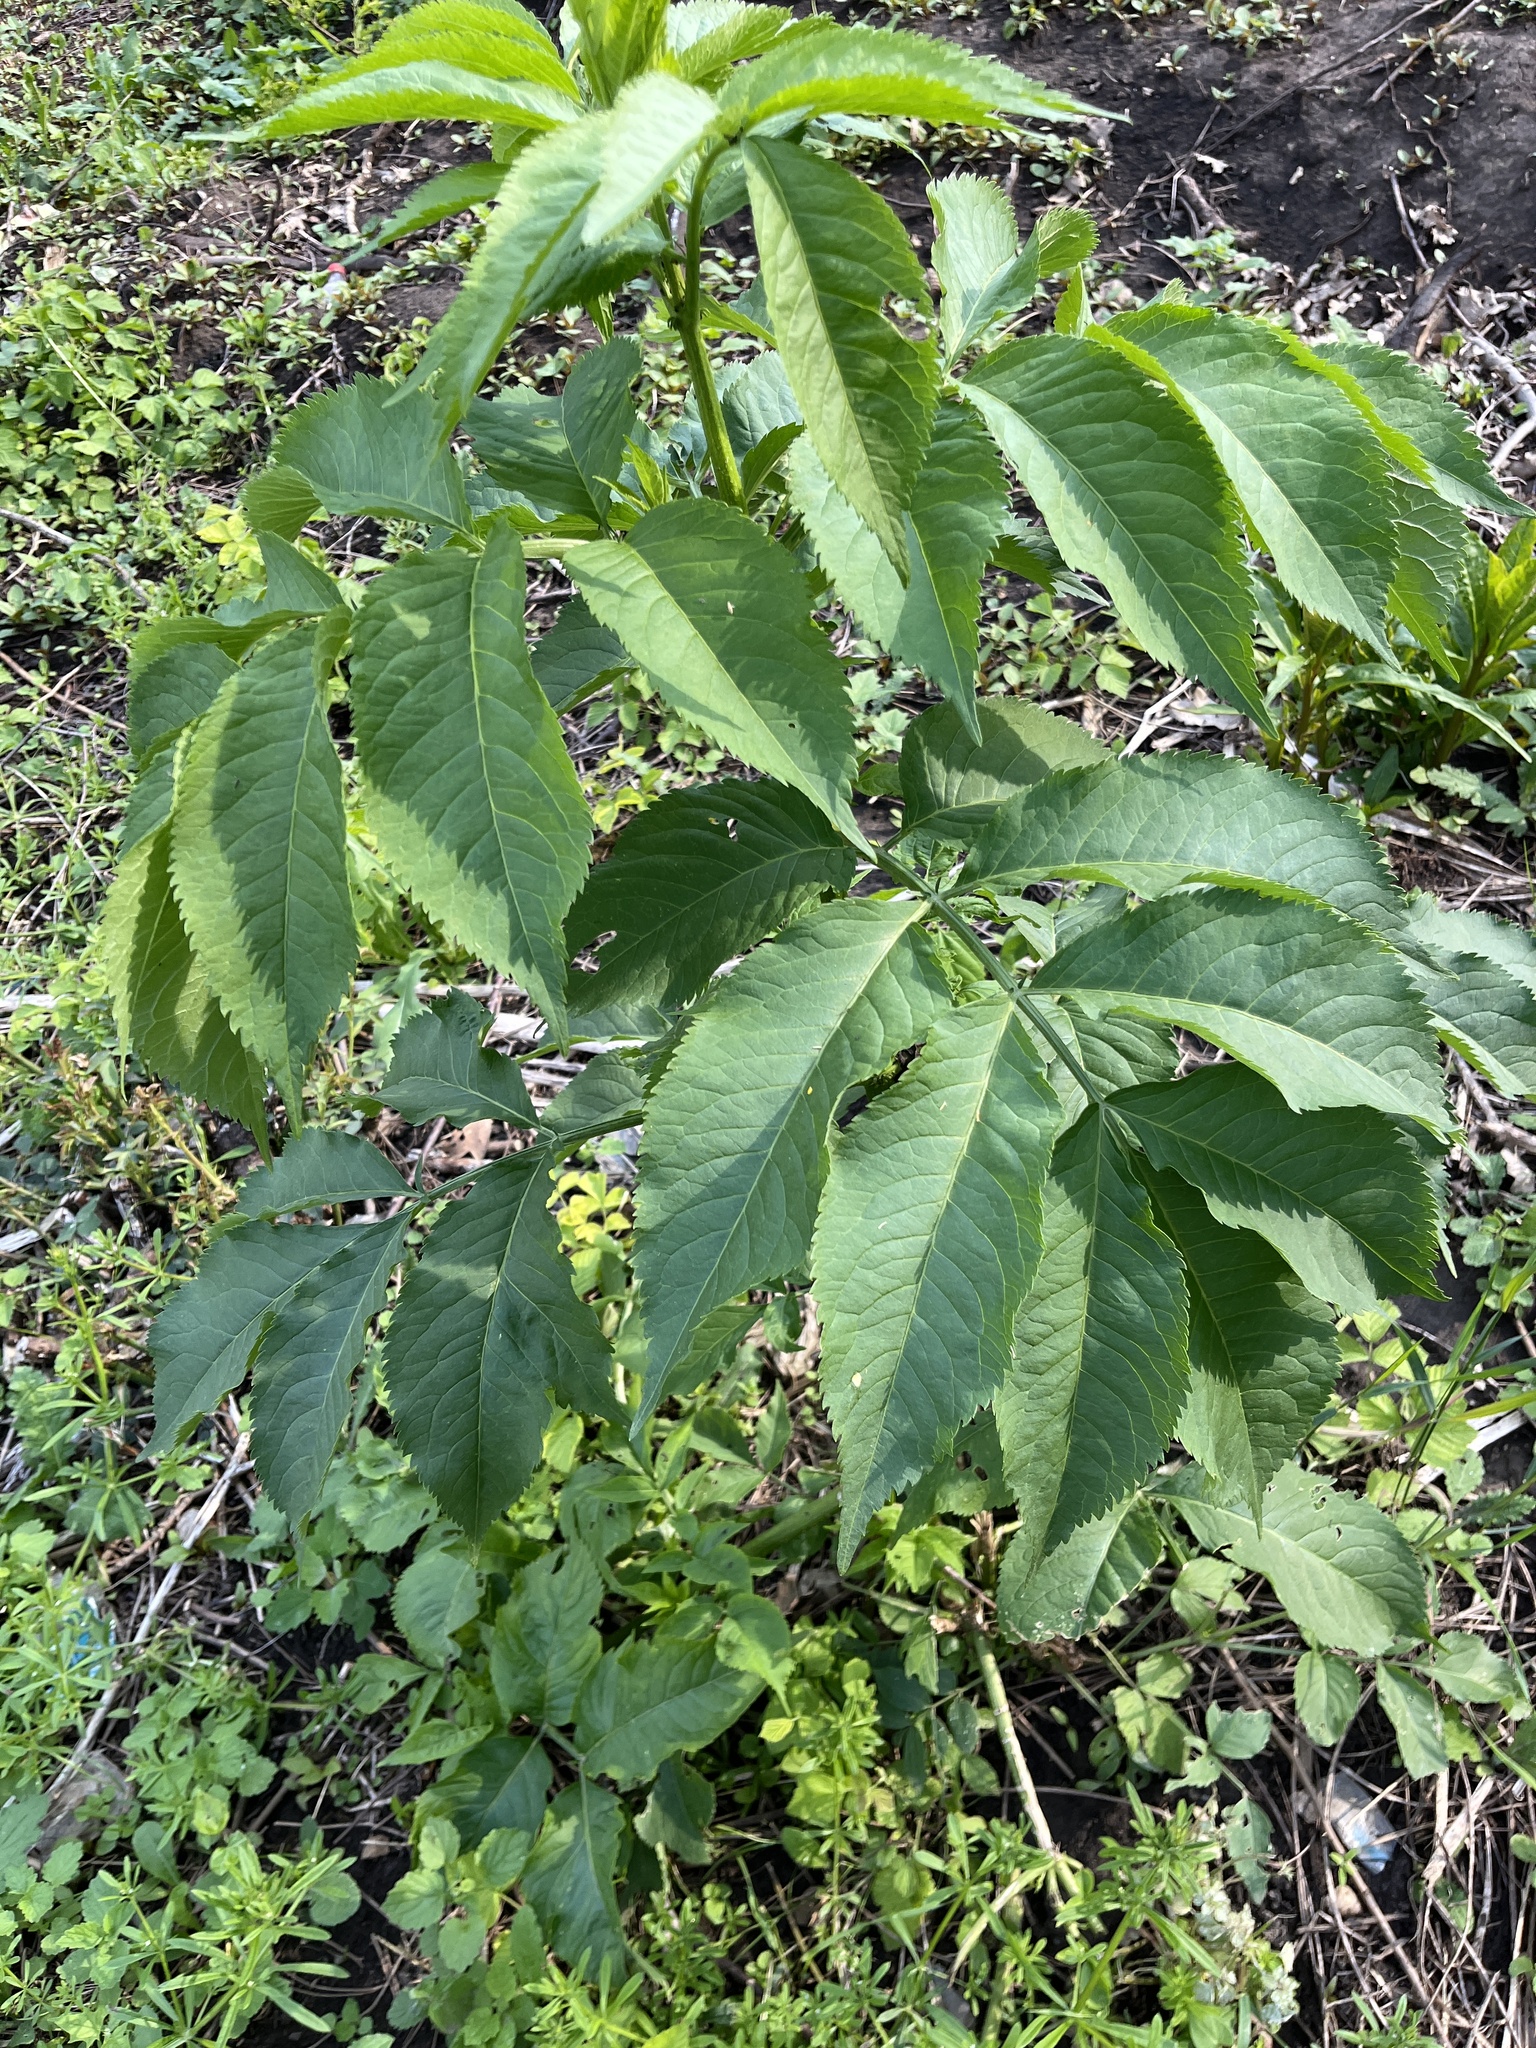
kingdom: Plantae
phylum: Tracheophyta
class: Magnoliopsida
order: Dipsacales
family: Viburnaceae
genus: Sambucus
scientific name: Sambucus nigra
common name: Elder
